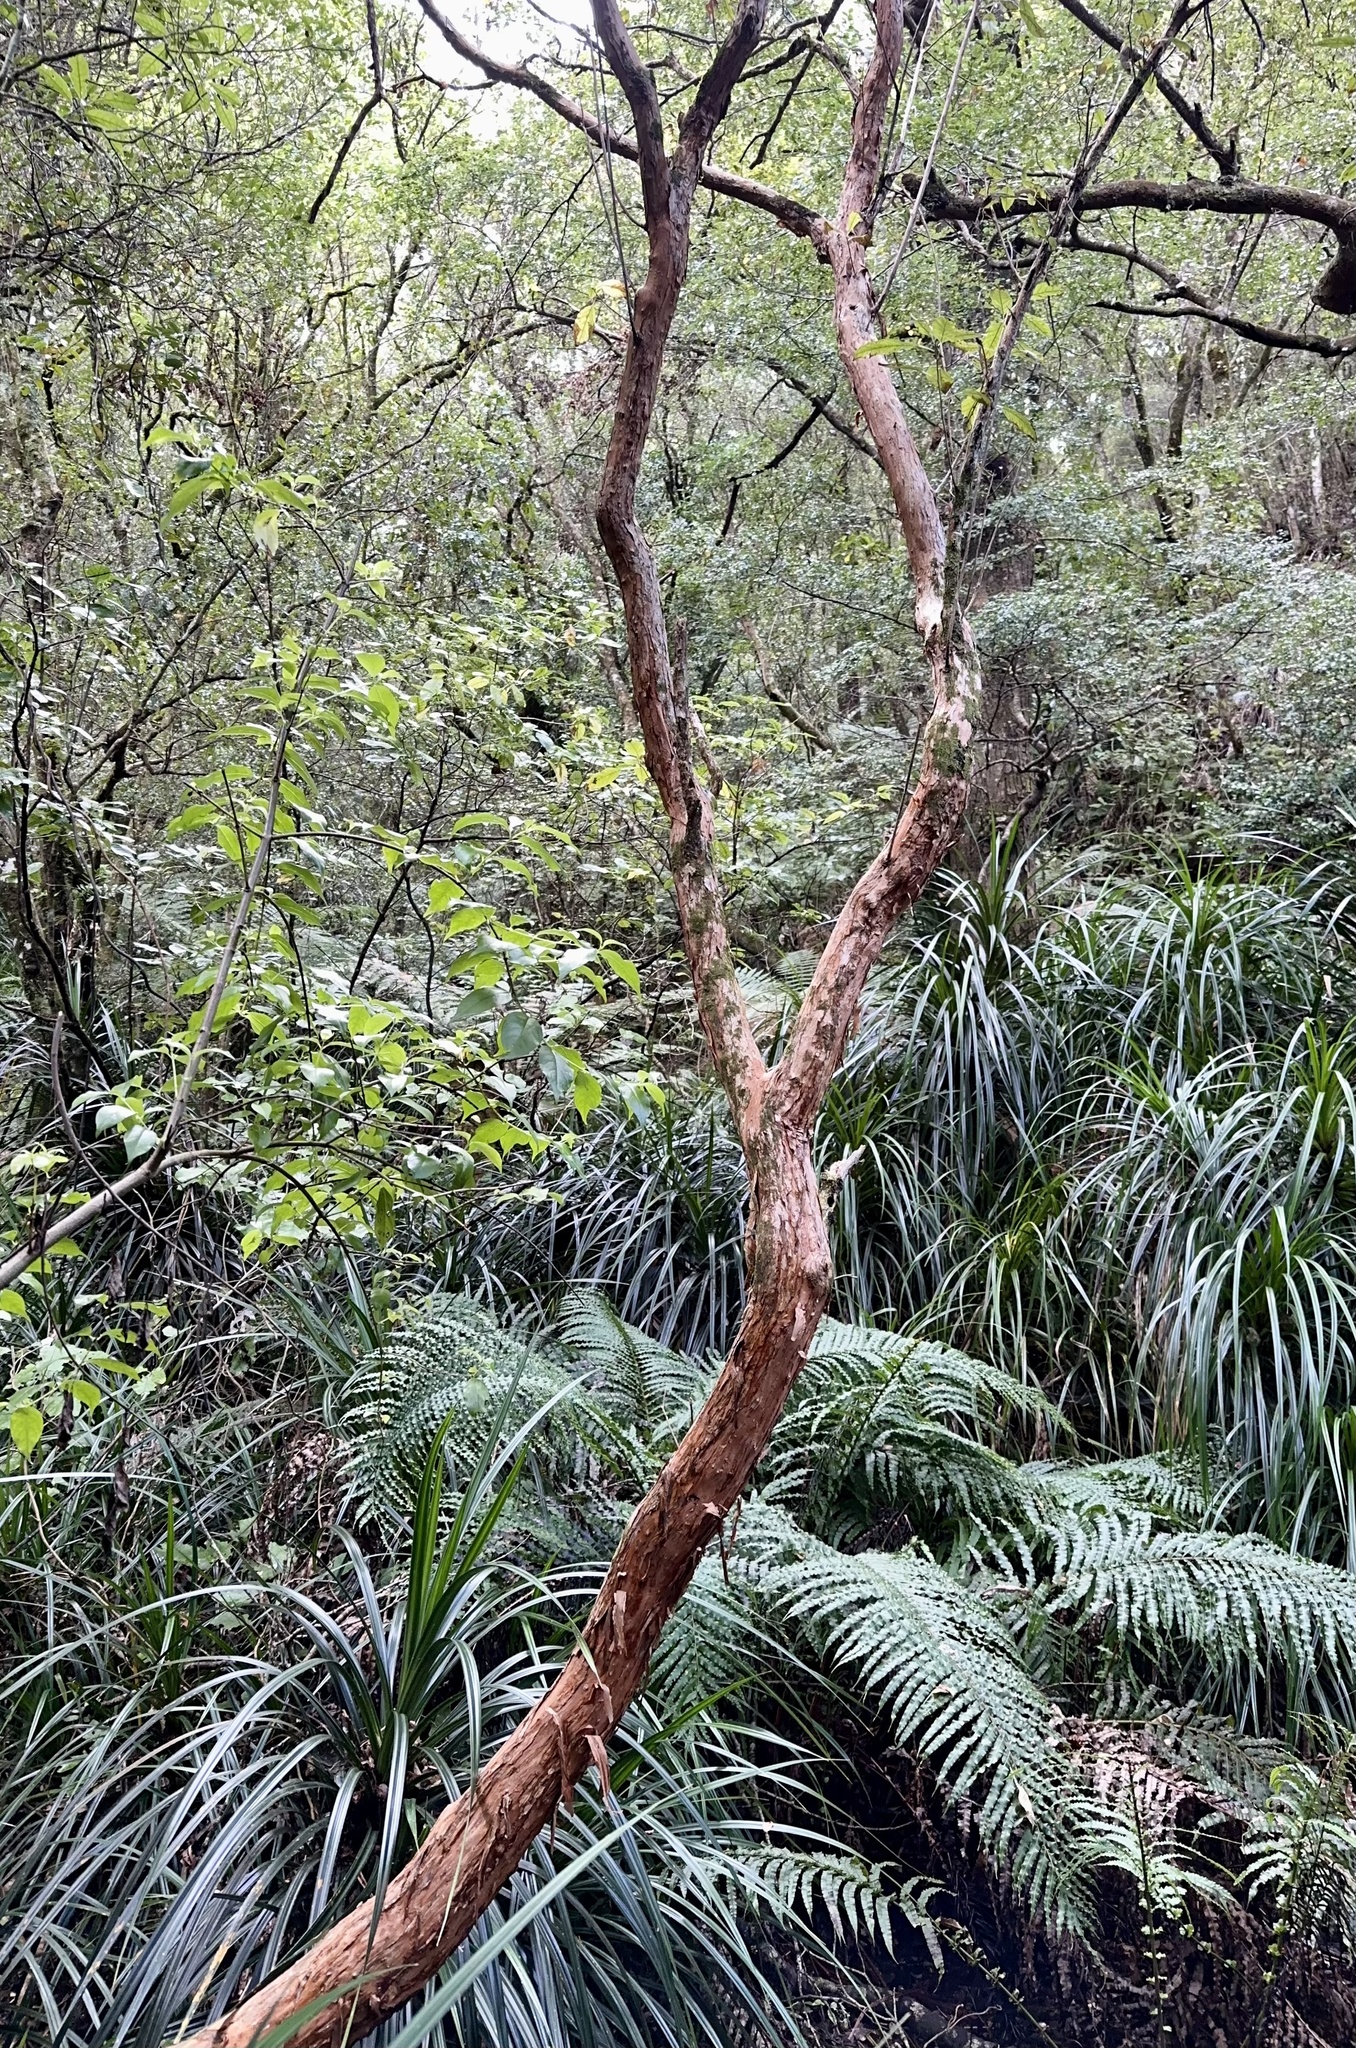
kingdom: Plantae
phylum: Tracheophyta
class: Magnoliopsida
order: Myrtales
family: Onagraceae
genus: Fuchsia
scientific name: Fuchsia excorticata
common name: Tree fuchsia
